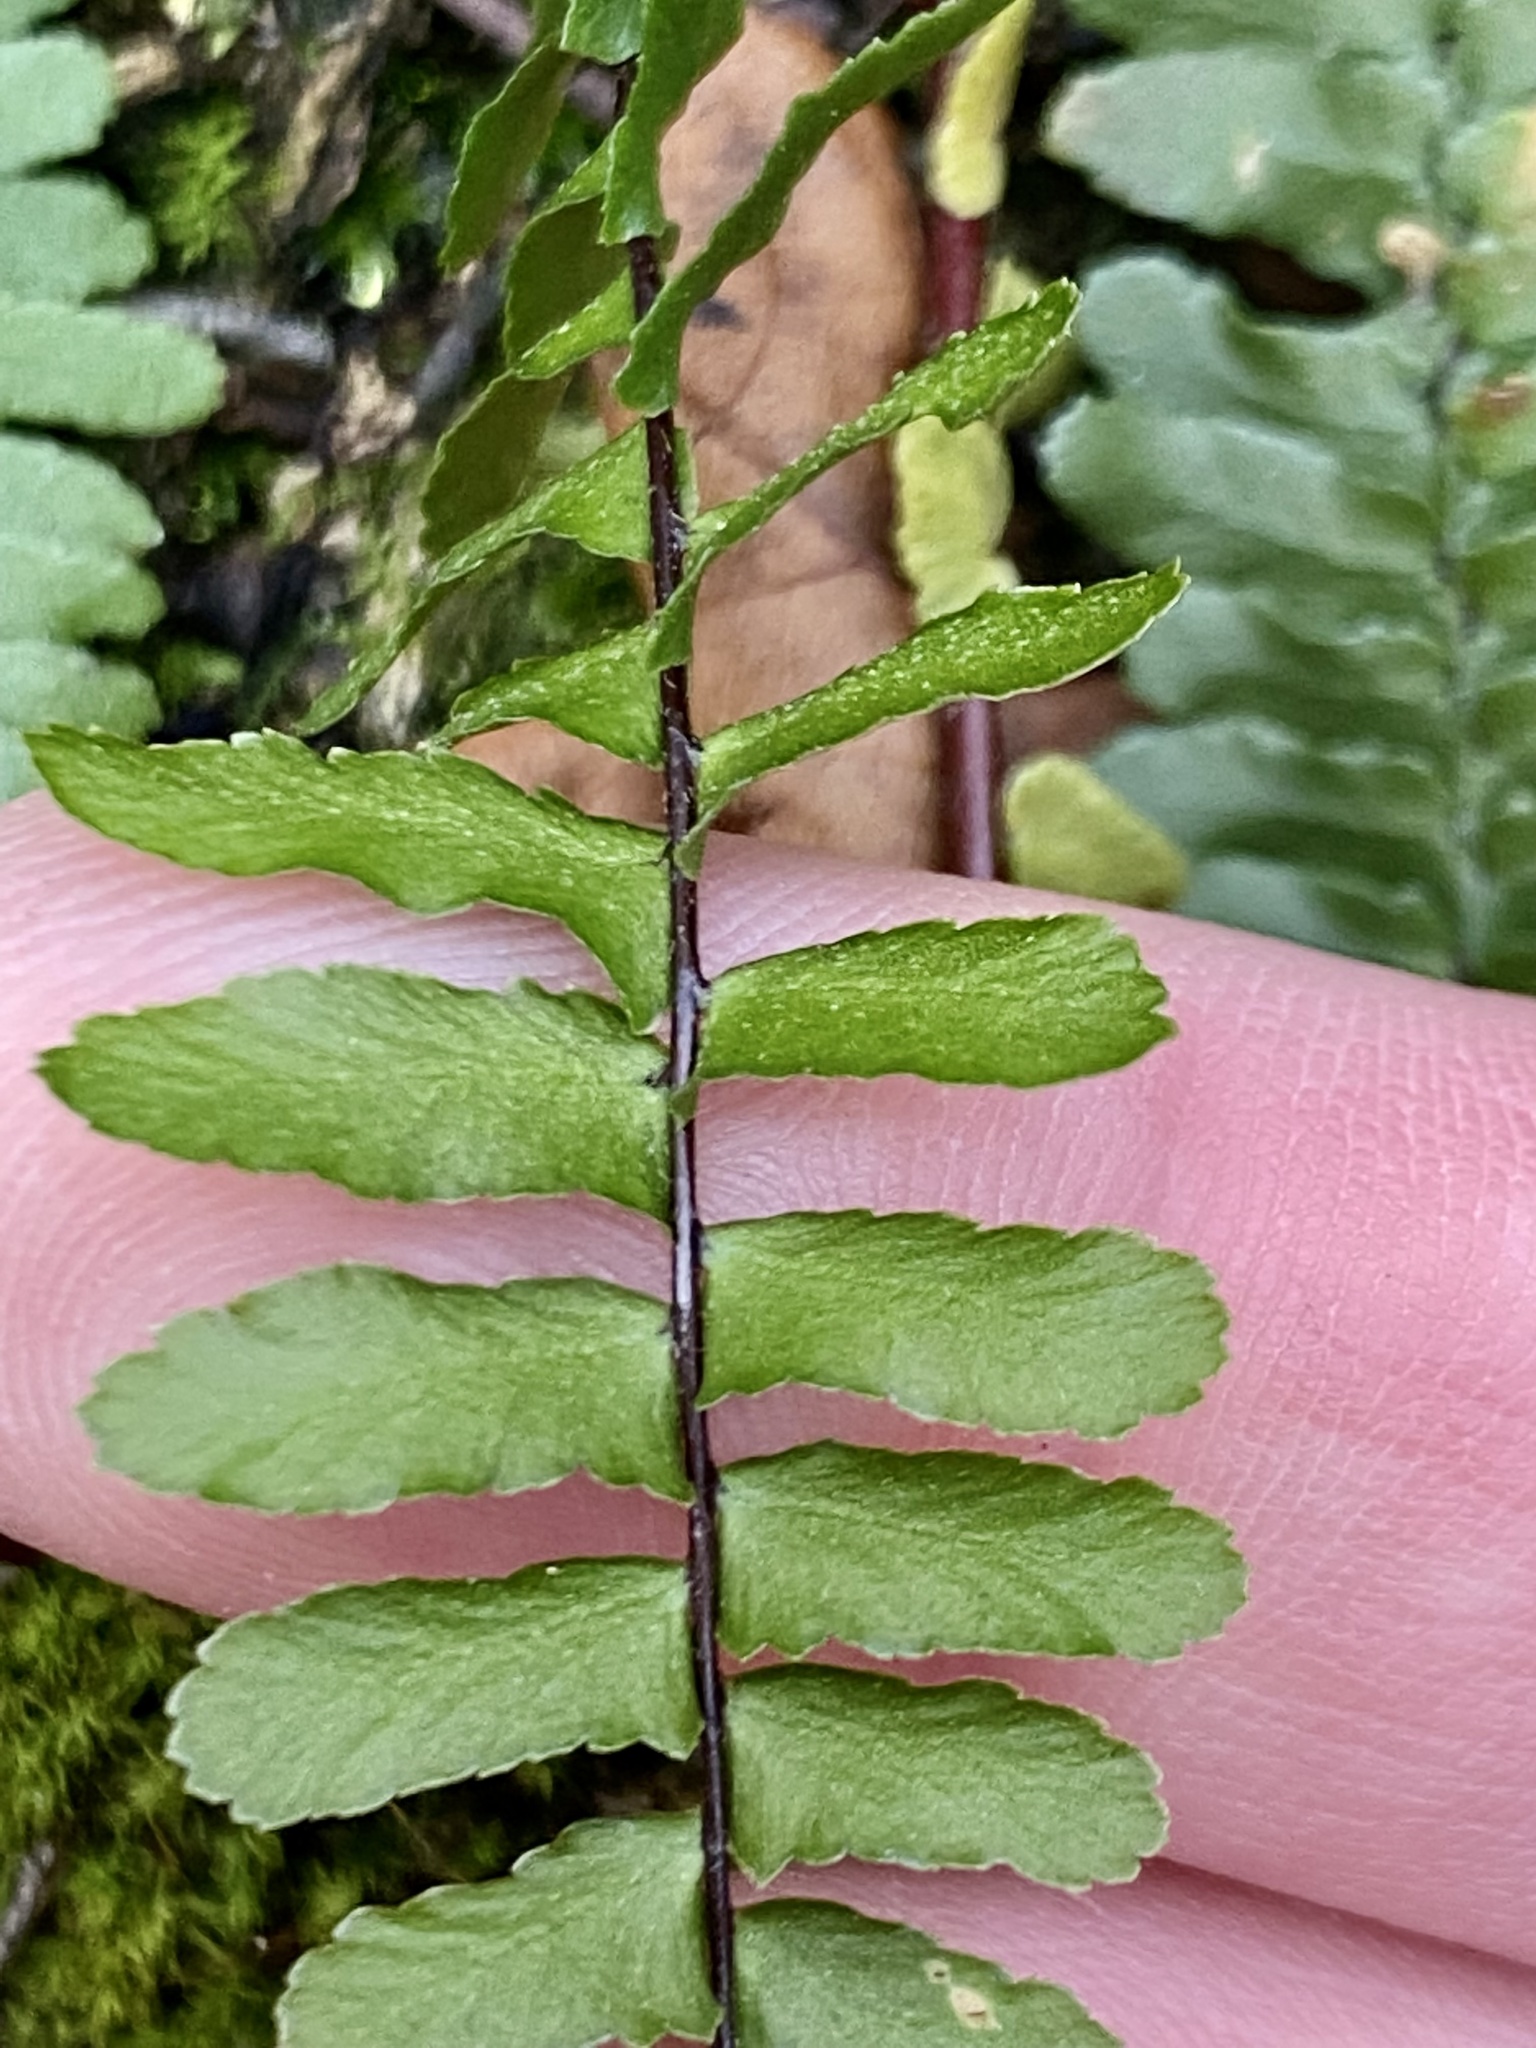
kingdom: Plantae
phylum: Tracheophyta
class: Polypodiopsida
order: Polypodiales
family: Aspleniaceae
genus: Asplenium
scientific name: Asplenium platyneuron
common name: Ebony spleenwort
